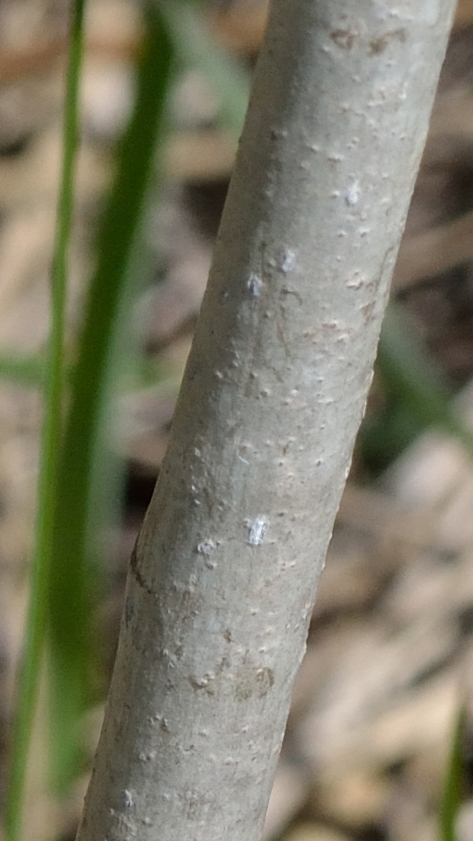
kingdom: Plantae
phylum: Tracheophyta
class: Magnoliopsida
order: Malpighiales
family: Salicaceae
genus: Populus
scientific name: Populus
